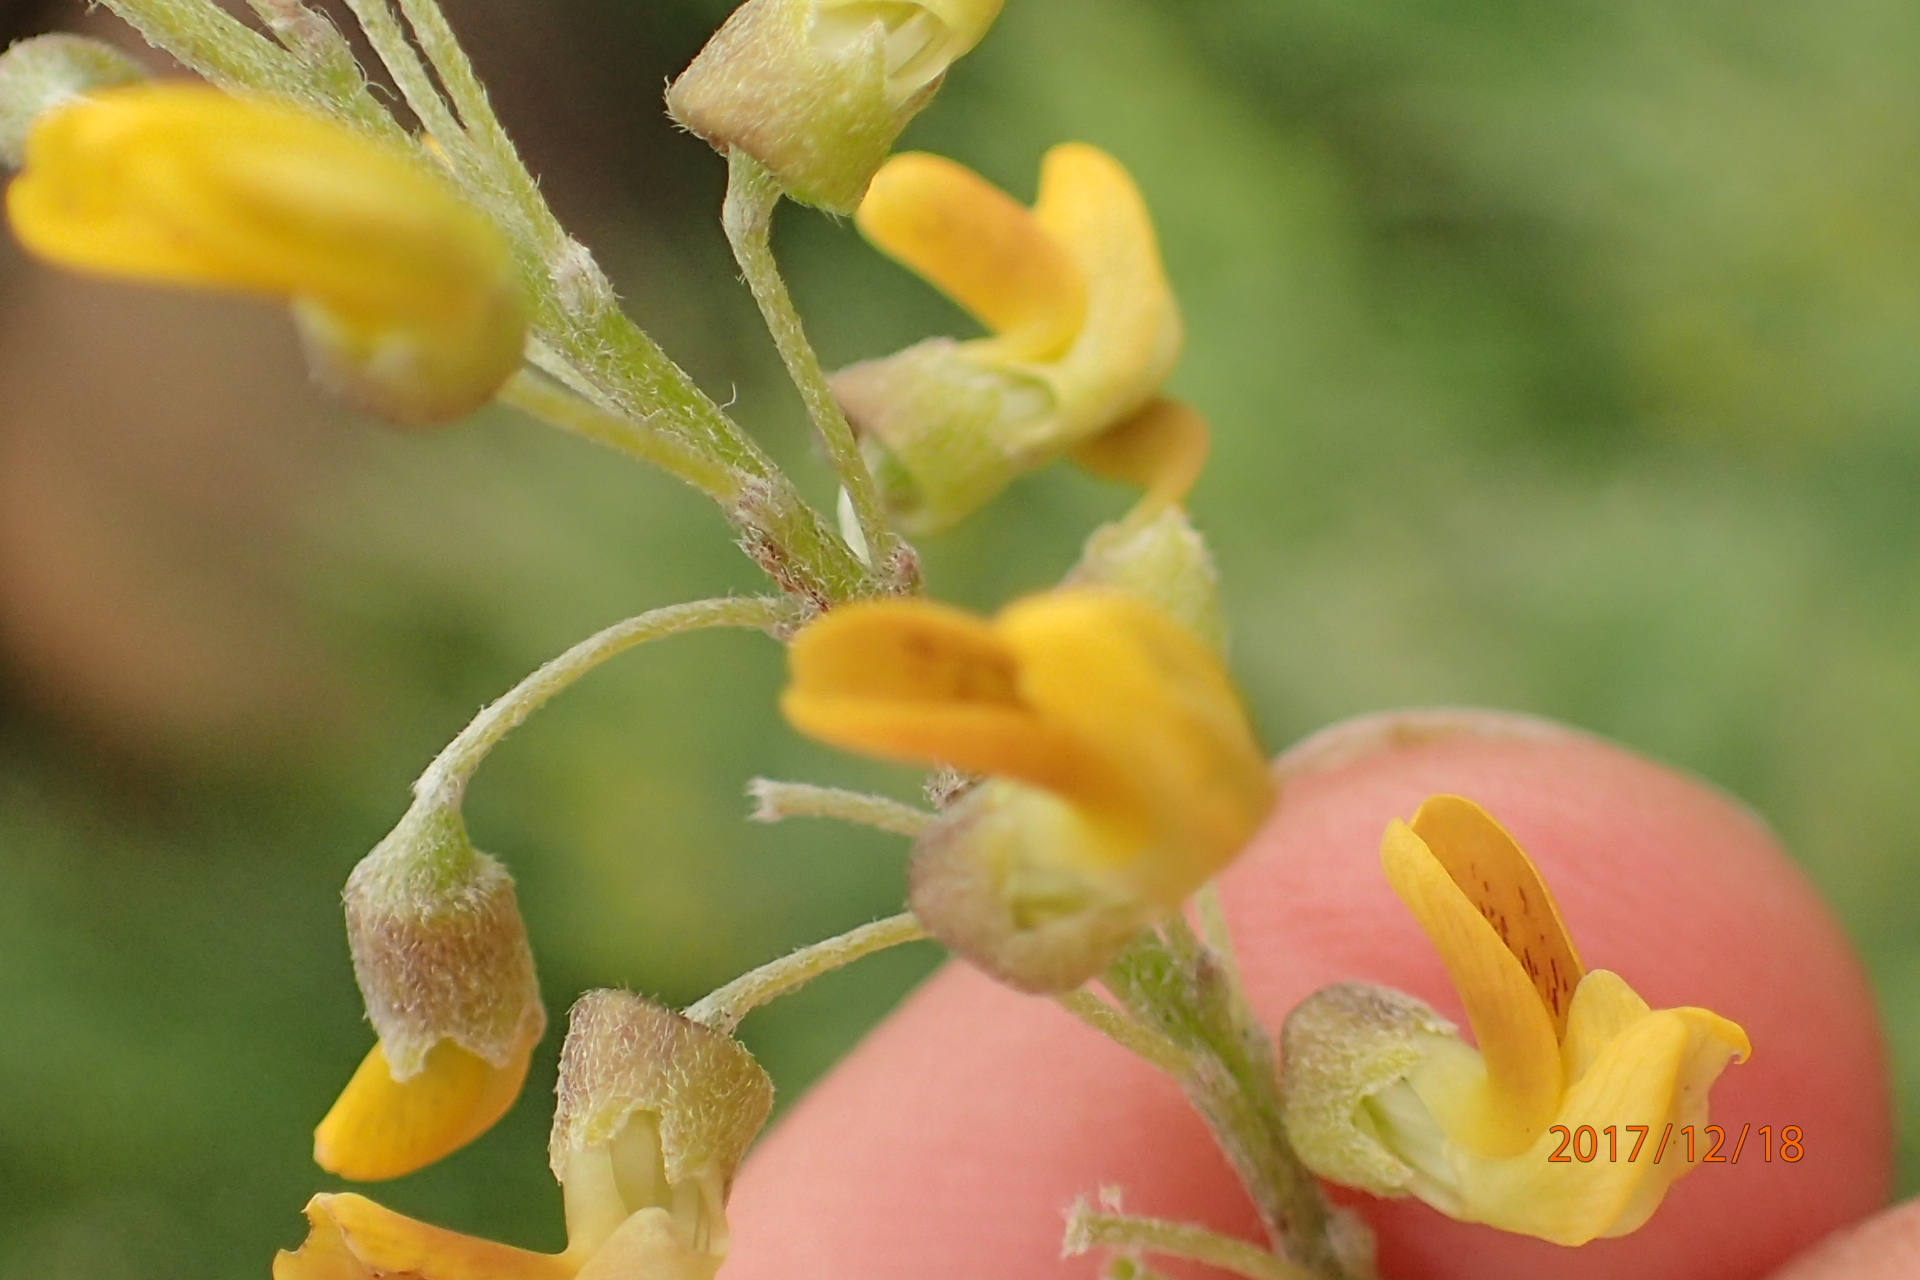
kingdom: Plantae
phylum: Tracheophyta
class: Magnoliopsida
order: Fabales
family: Fabaceae
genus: Calpurnia
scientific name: Calpurnia sericea
